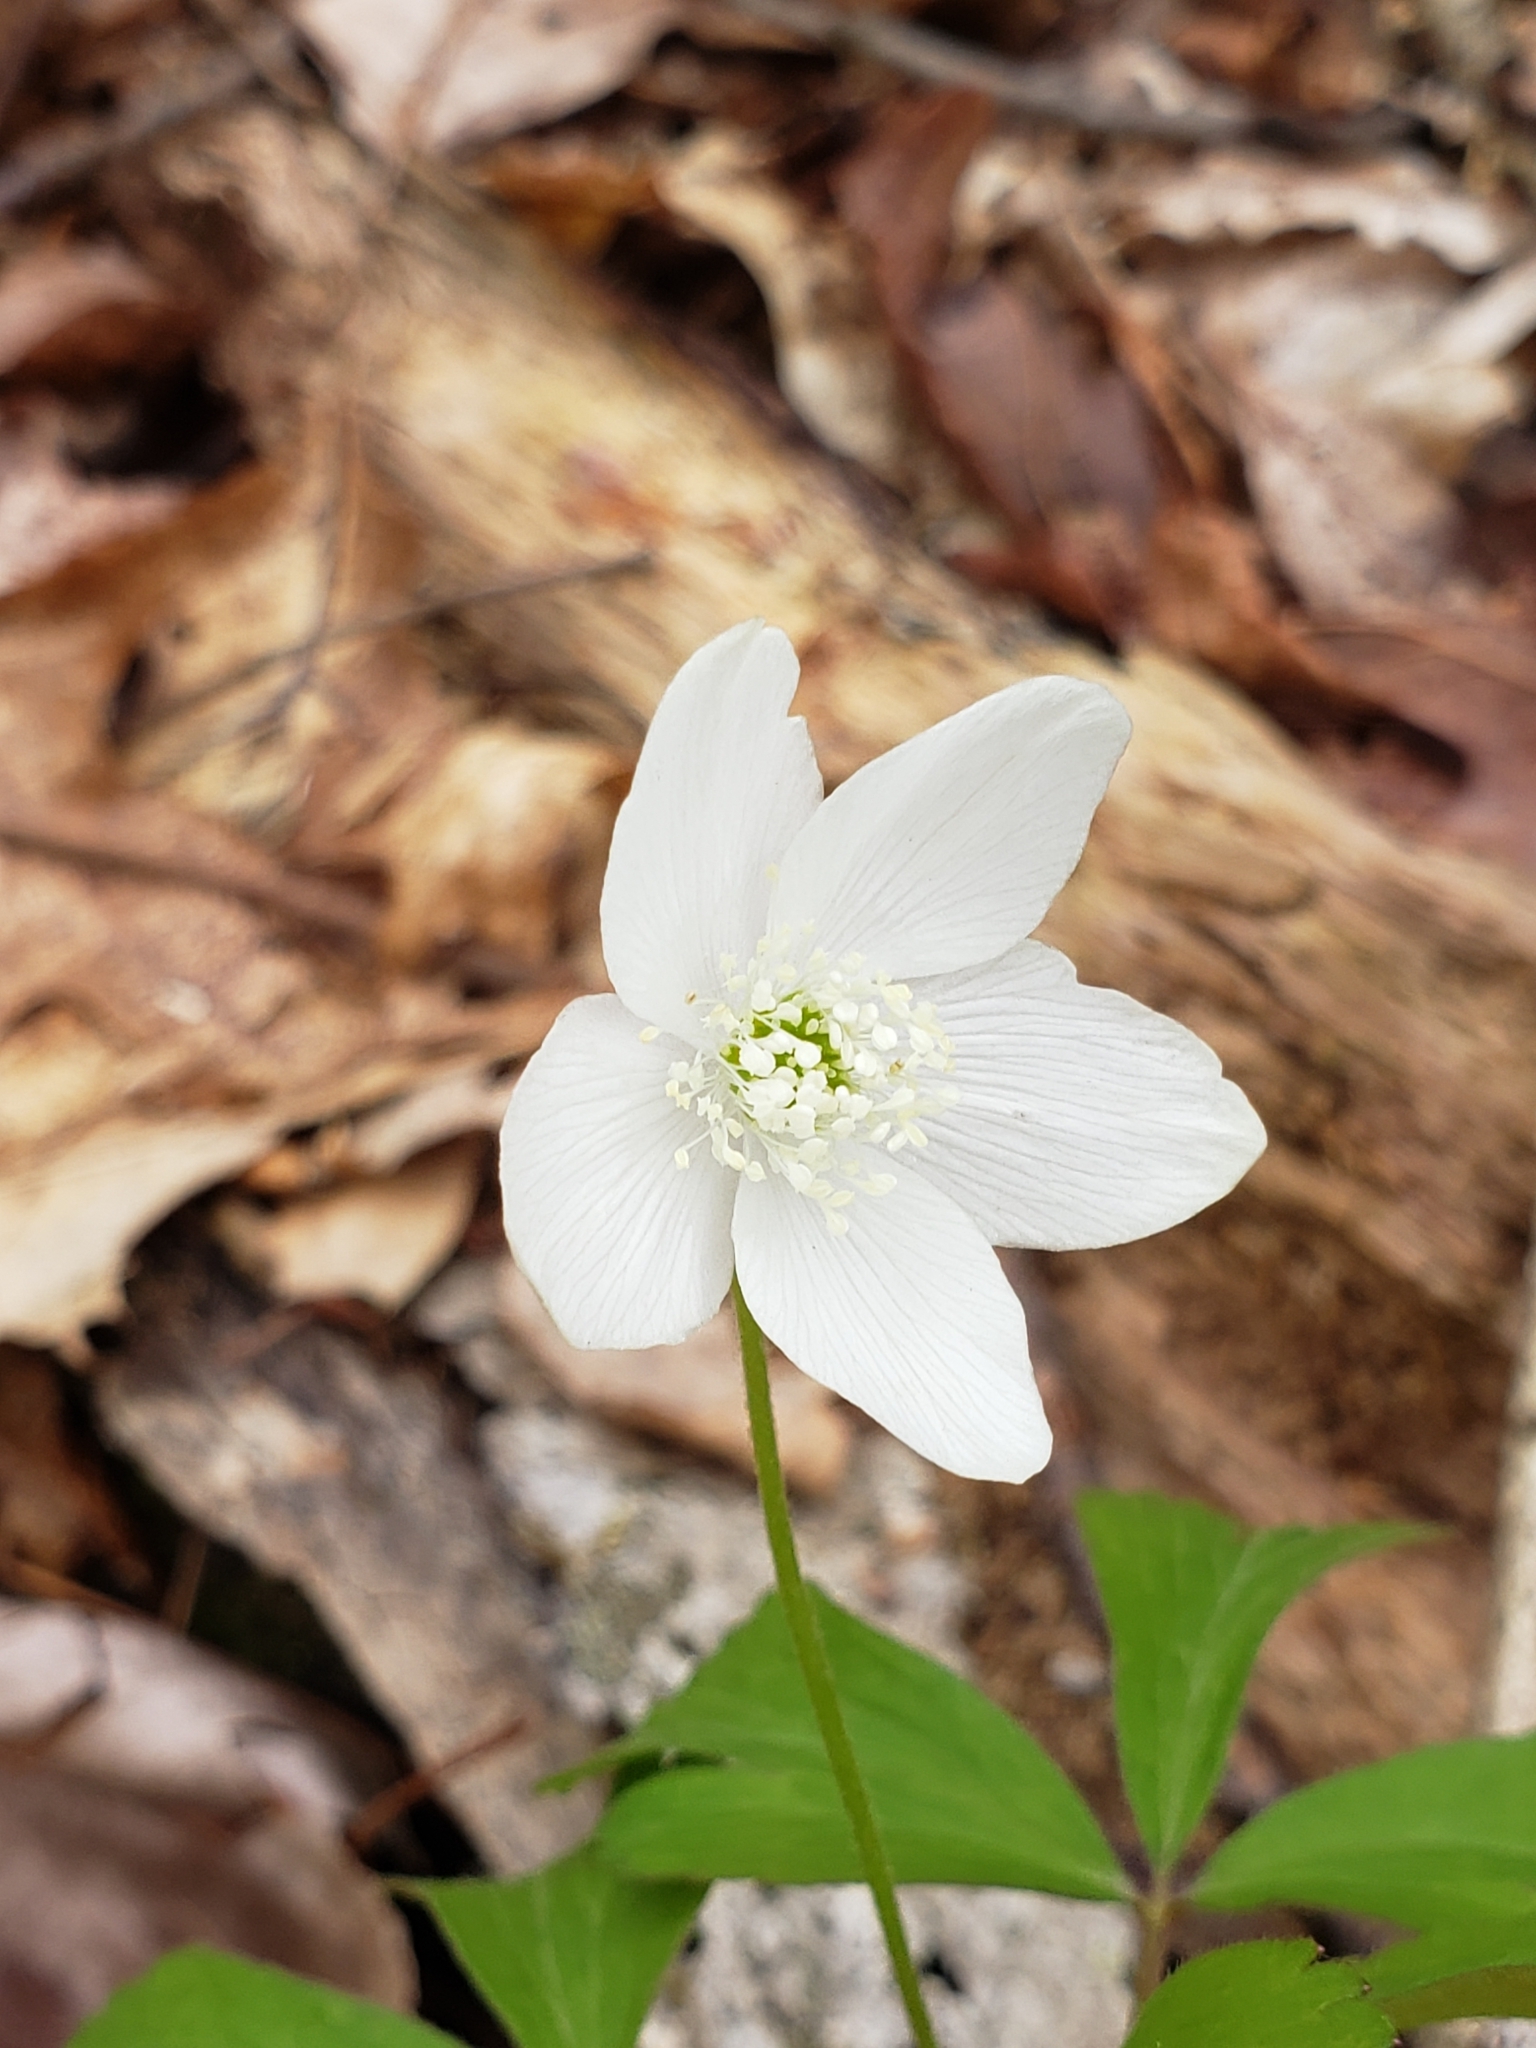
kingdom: Plantae
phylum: Tracheophyta
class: Magnoliopsida
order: Ranunculales
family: Ranunculaceae
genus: Anemone
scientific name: Anemone quinquefolia
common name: Wood anemone
